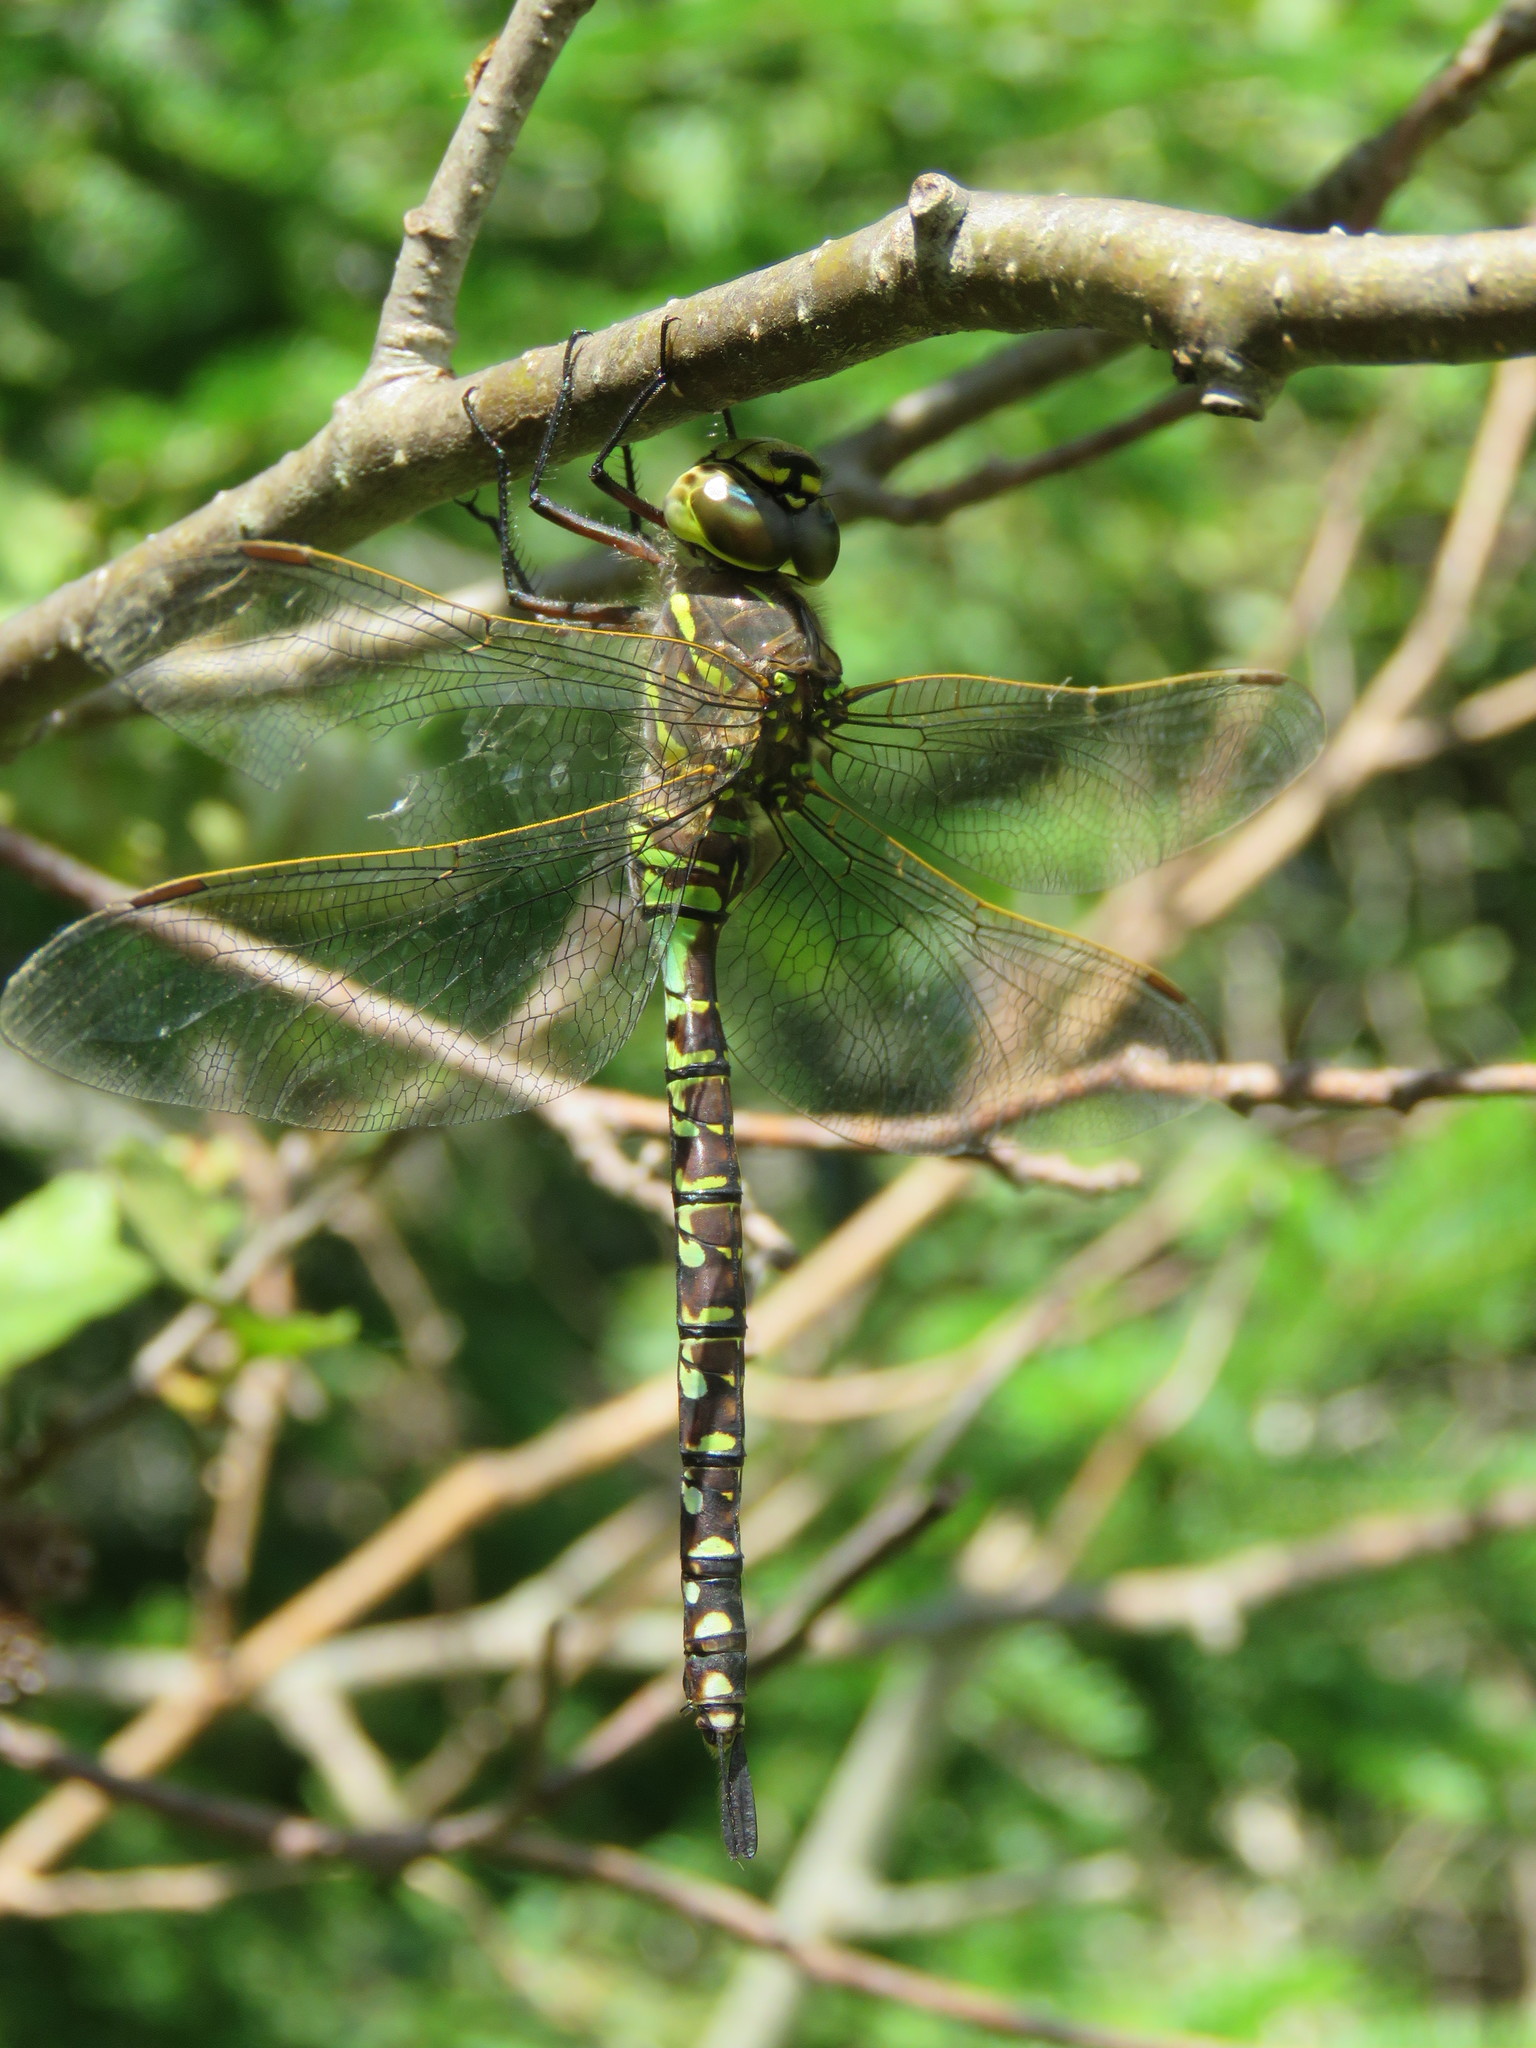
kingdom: Animalia
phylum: Arthropoda
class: Insecta
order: Odonata
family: Aeshnidae
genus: Aeshna
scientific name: Aeshna interrupta
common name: Variable darner
